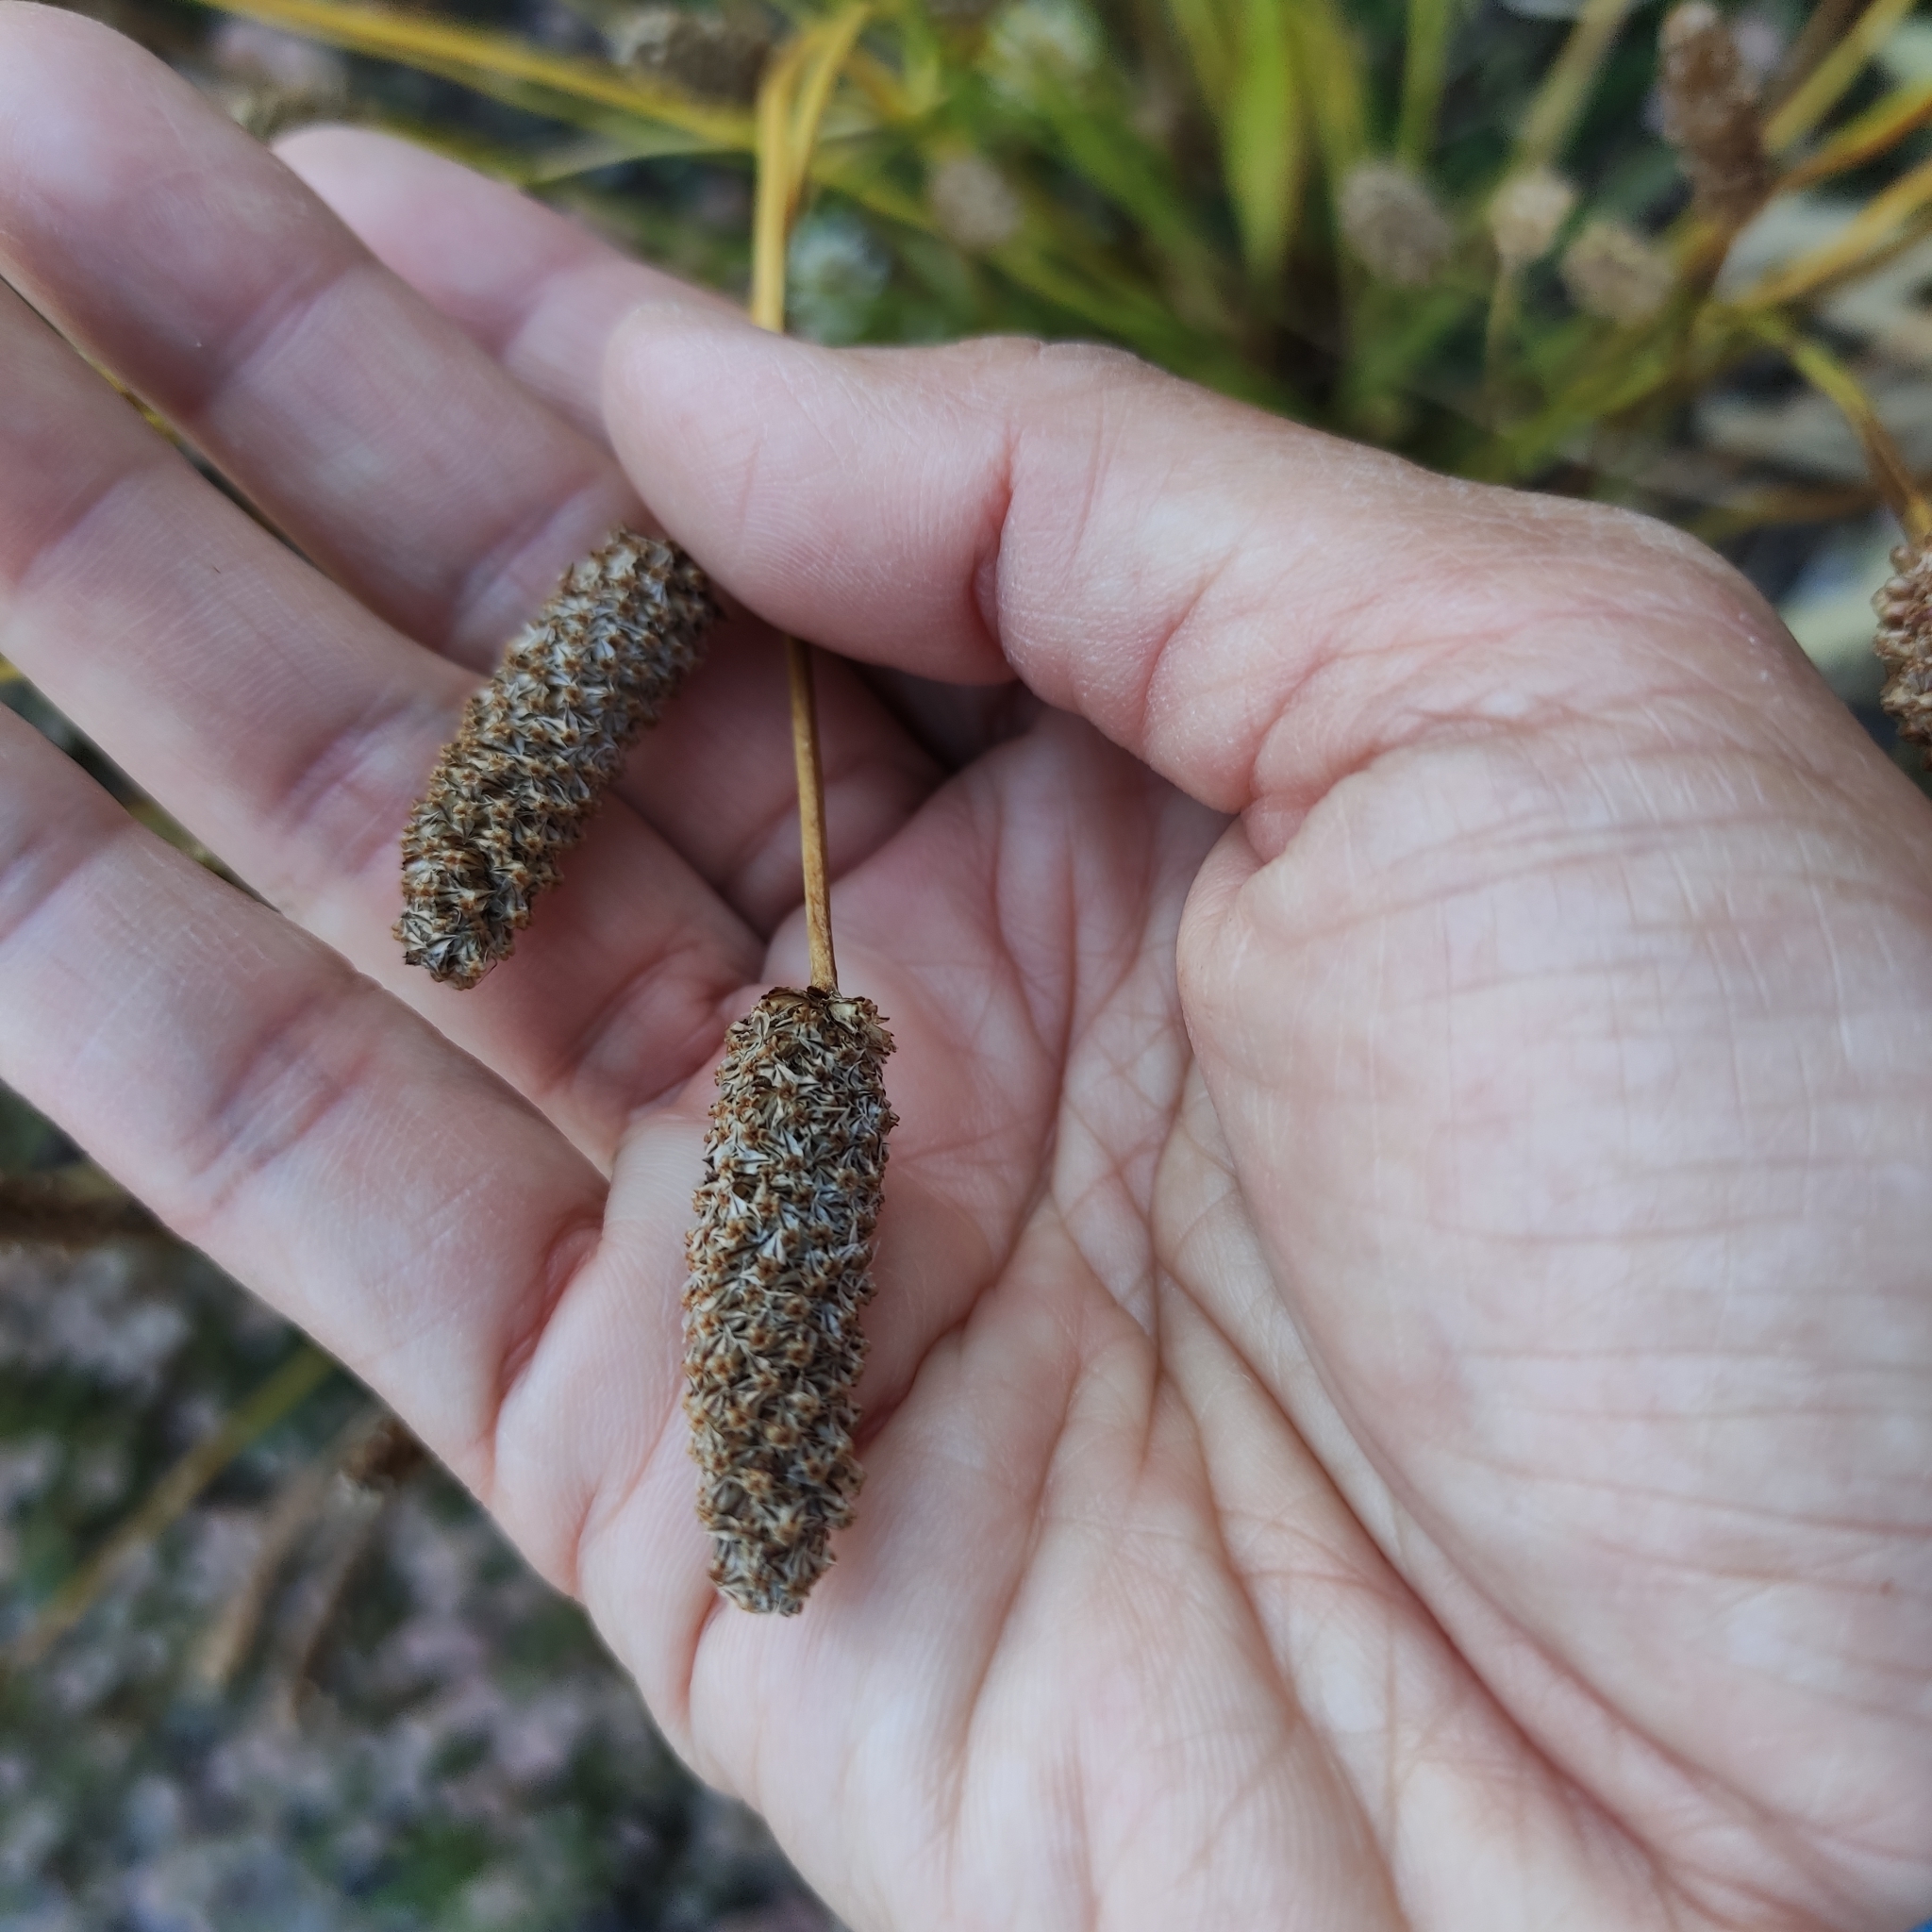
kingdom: Plantae
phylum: Tracheophyta
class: Magnoliopsida
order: Lamiales
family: Plantaginaceae
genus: Plantago
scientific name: Plantago lanceolata
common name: Ribwort plantain
